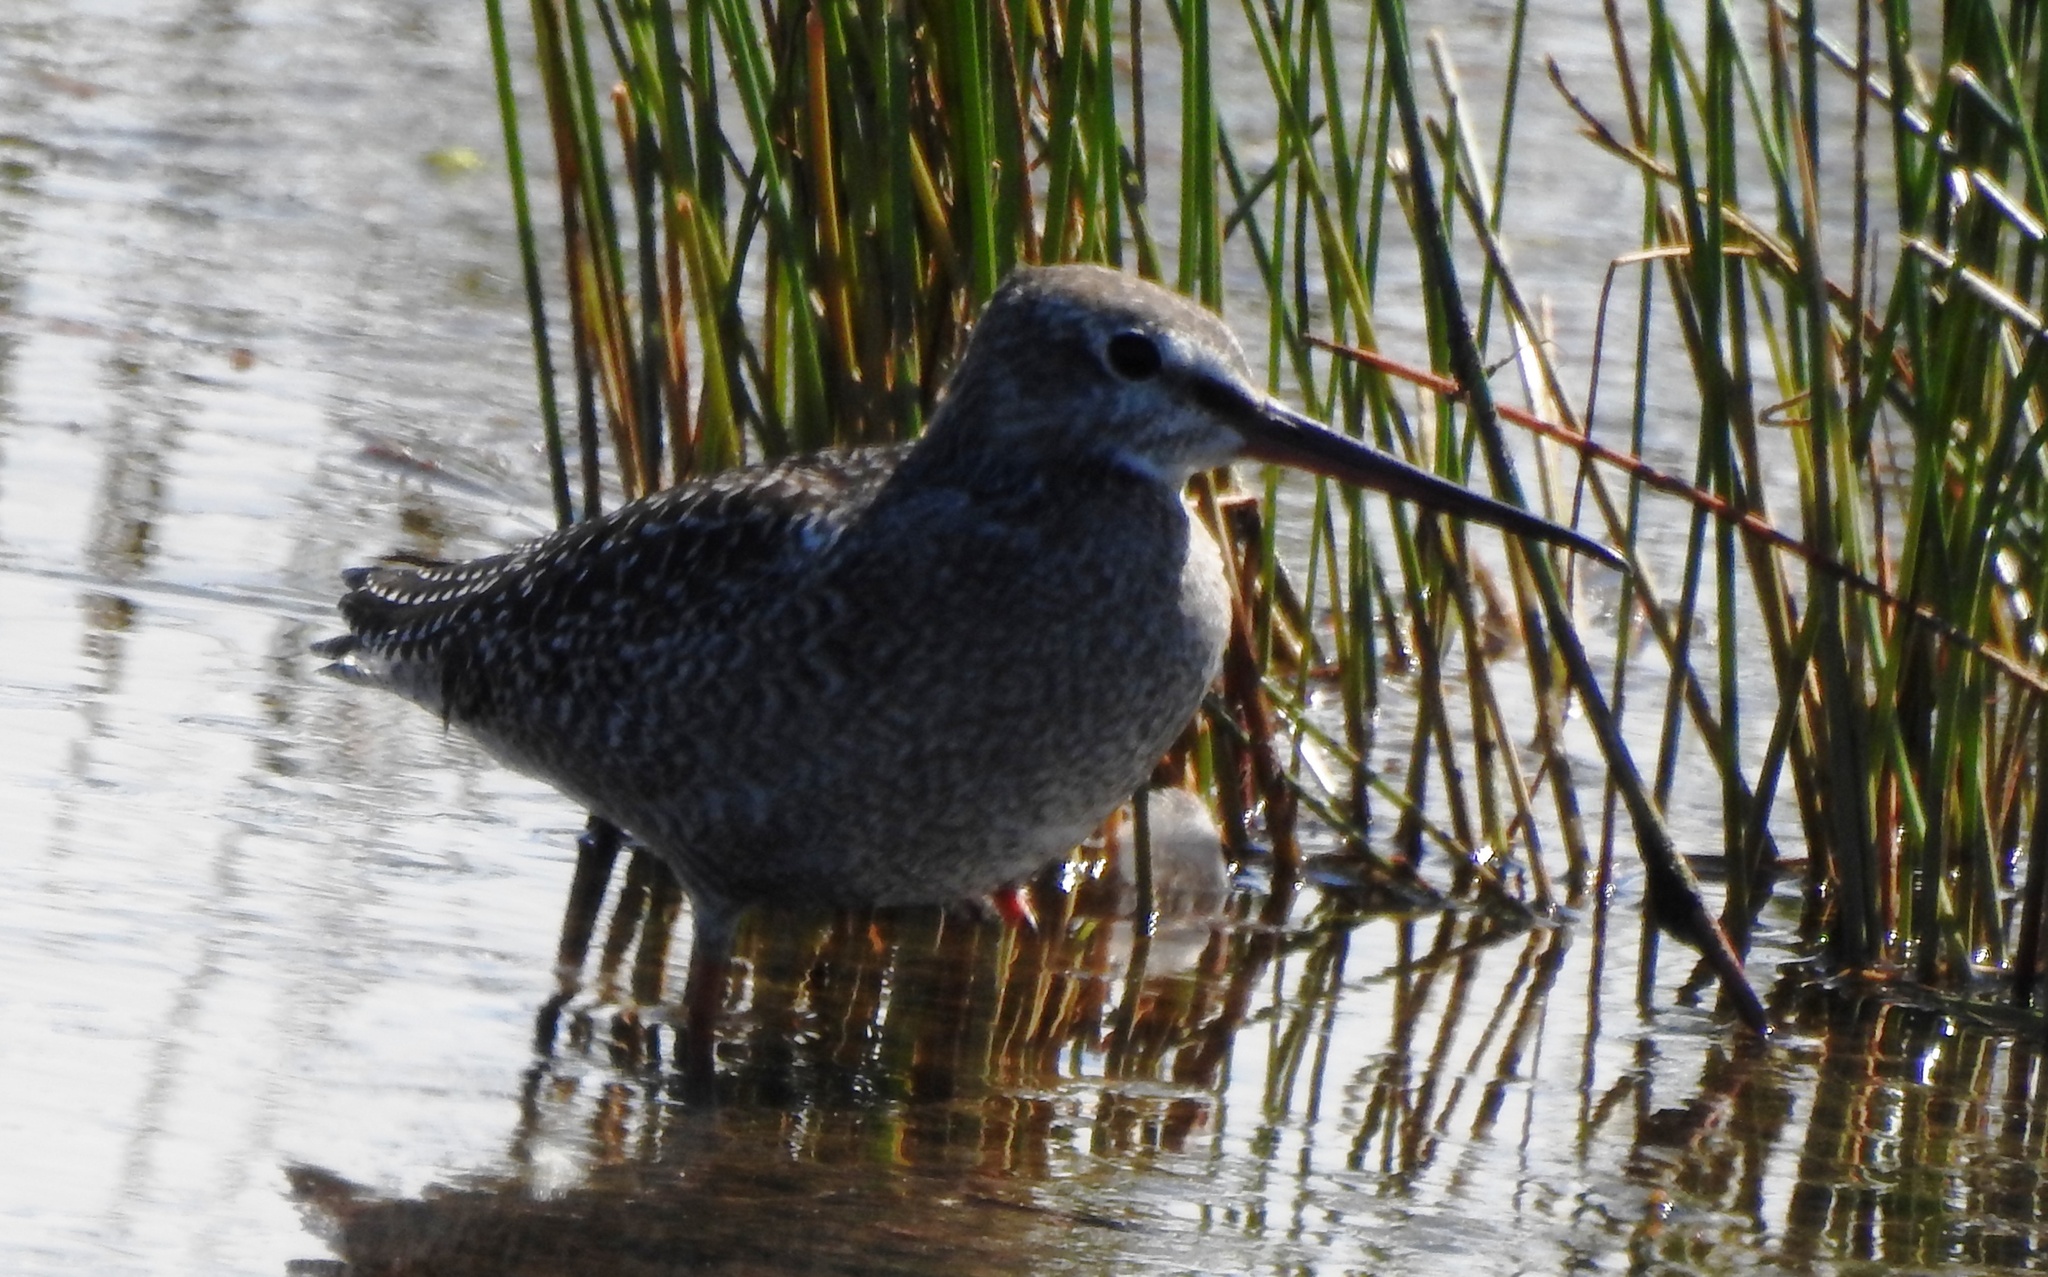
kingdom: Animalia
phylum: Chordata
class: Aves
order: Charadriiformes
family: Scolopacidae
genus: Tringa
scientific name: Tringa erythropus
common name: Spotted redshank
